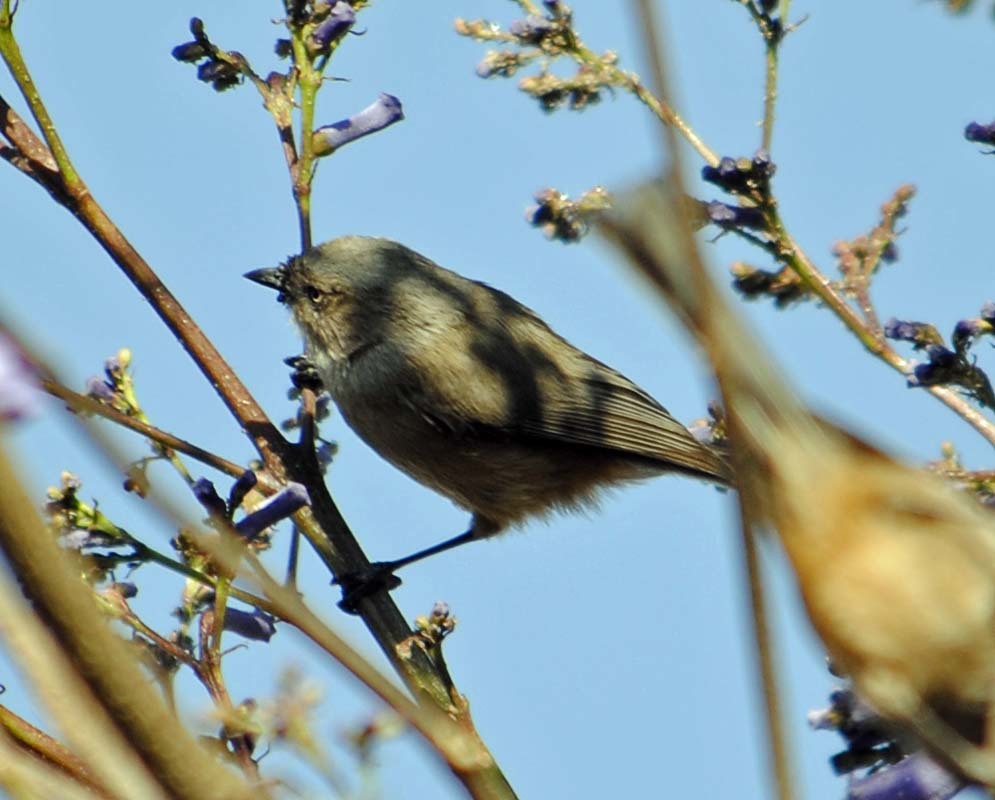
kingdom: Animalia
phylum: Chordata
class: Aves
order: Passeriformes
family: Aegithalidae
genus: Psaltriparus
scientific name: Psaltriparus minimus
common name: American bushtit
